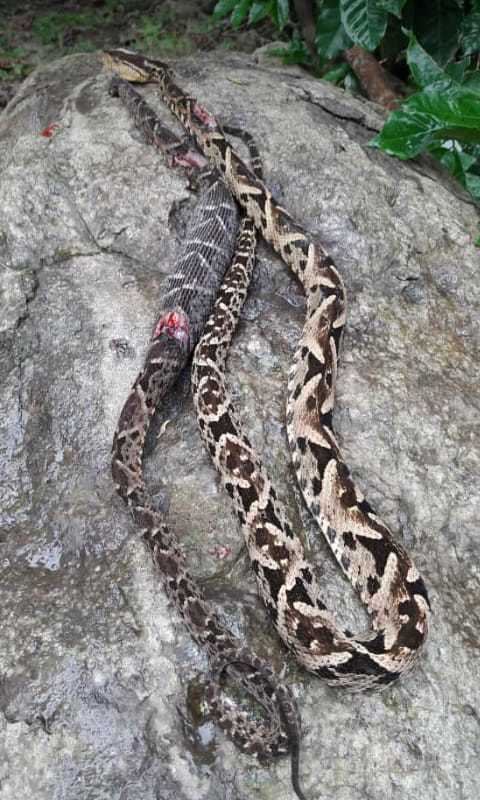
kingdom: Animalia
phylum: Chordata
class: Squamata
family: Viperidae
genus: Bothrops
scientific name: Bothrops asper
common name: Terciopelo
